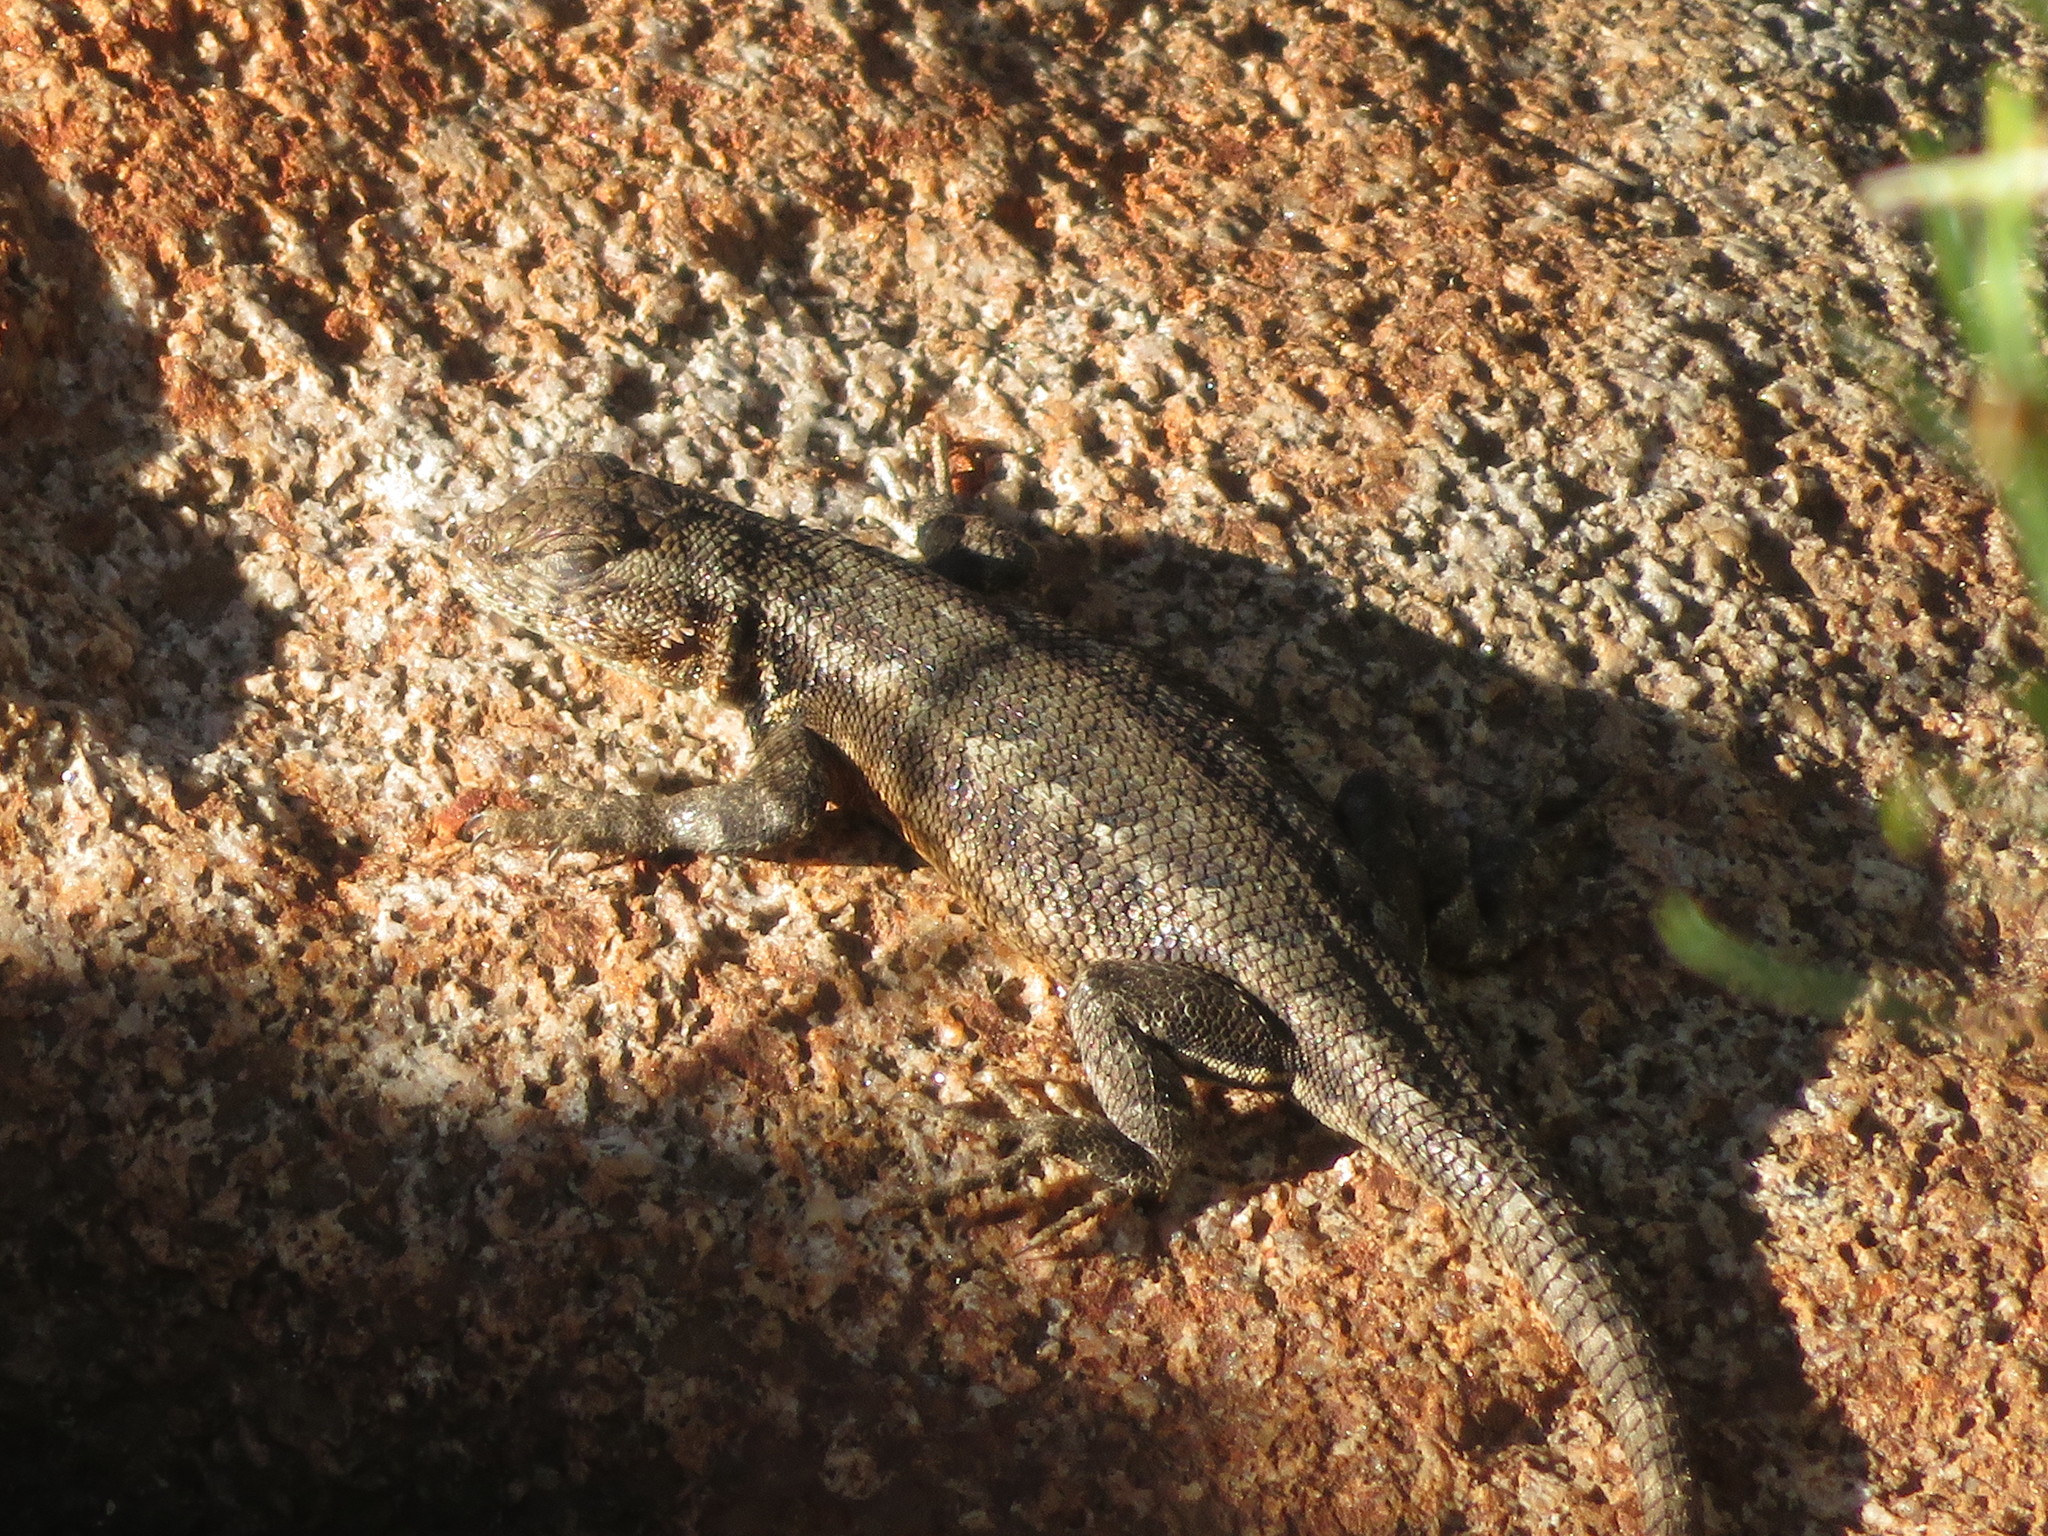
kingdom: Animalia
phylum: Chordata
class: Squamata
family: Phrynosomatidae
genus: Sceloporus
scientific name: Sceloporus graciosus
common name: Sagebrush lizard
